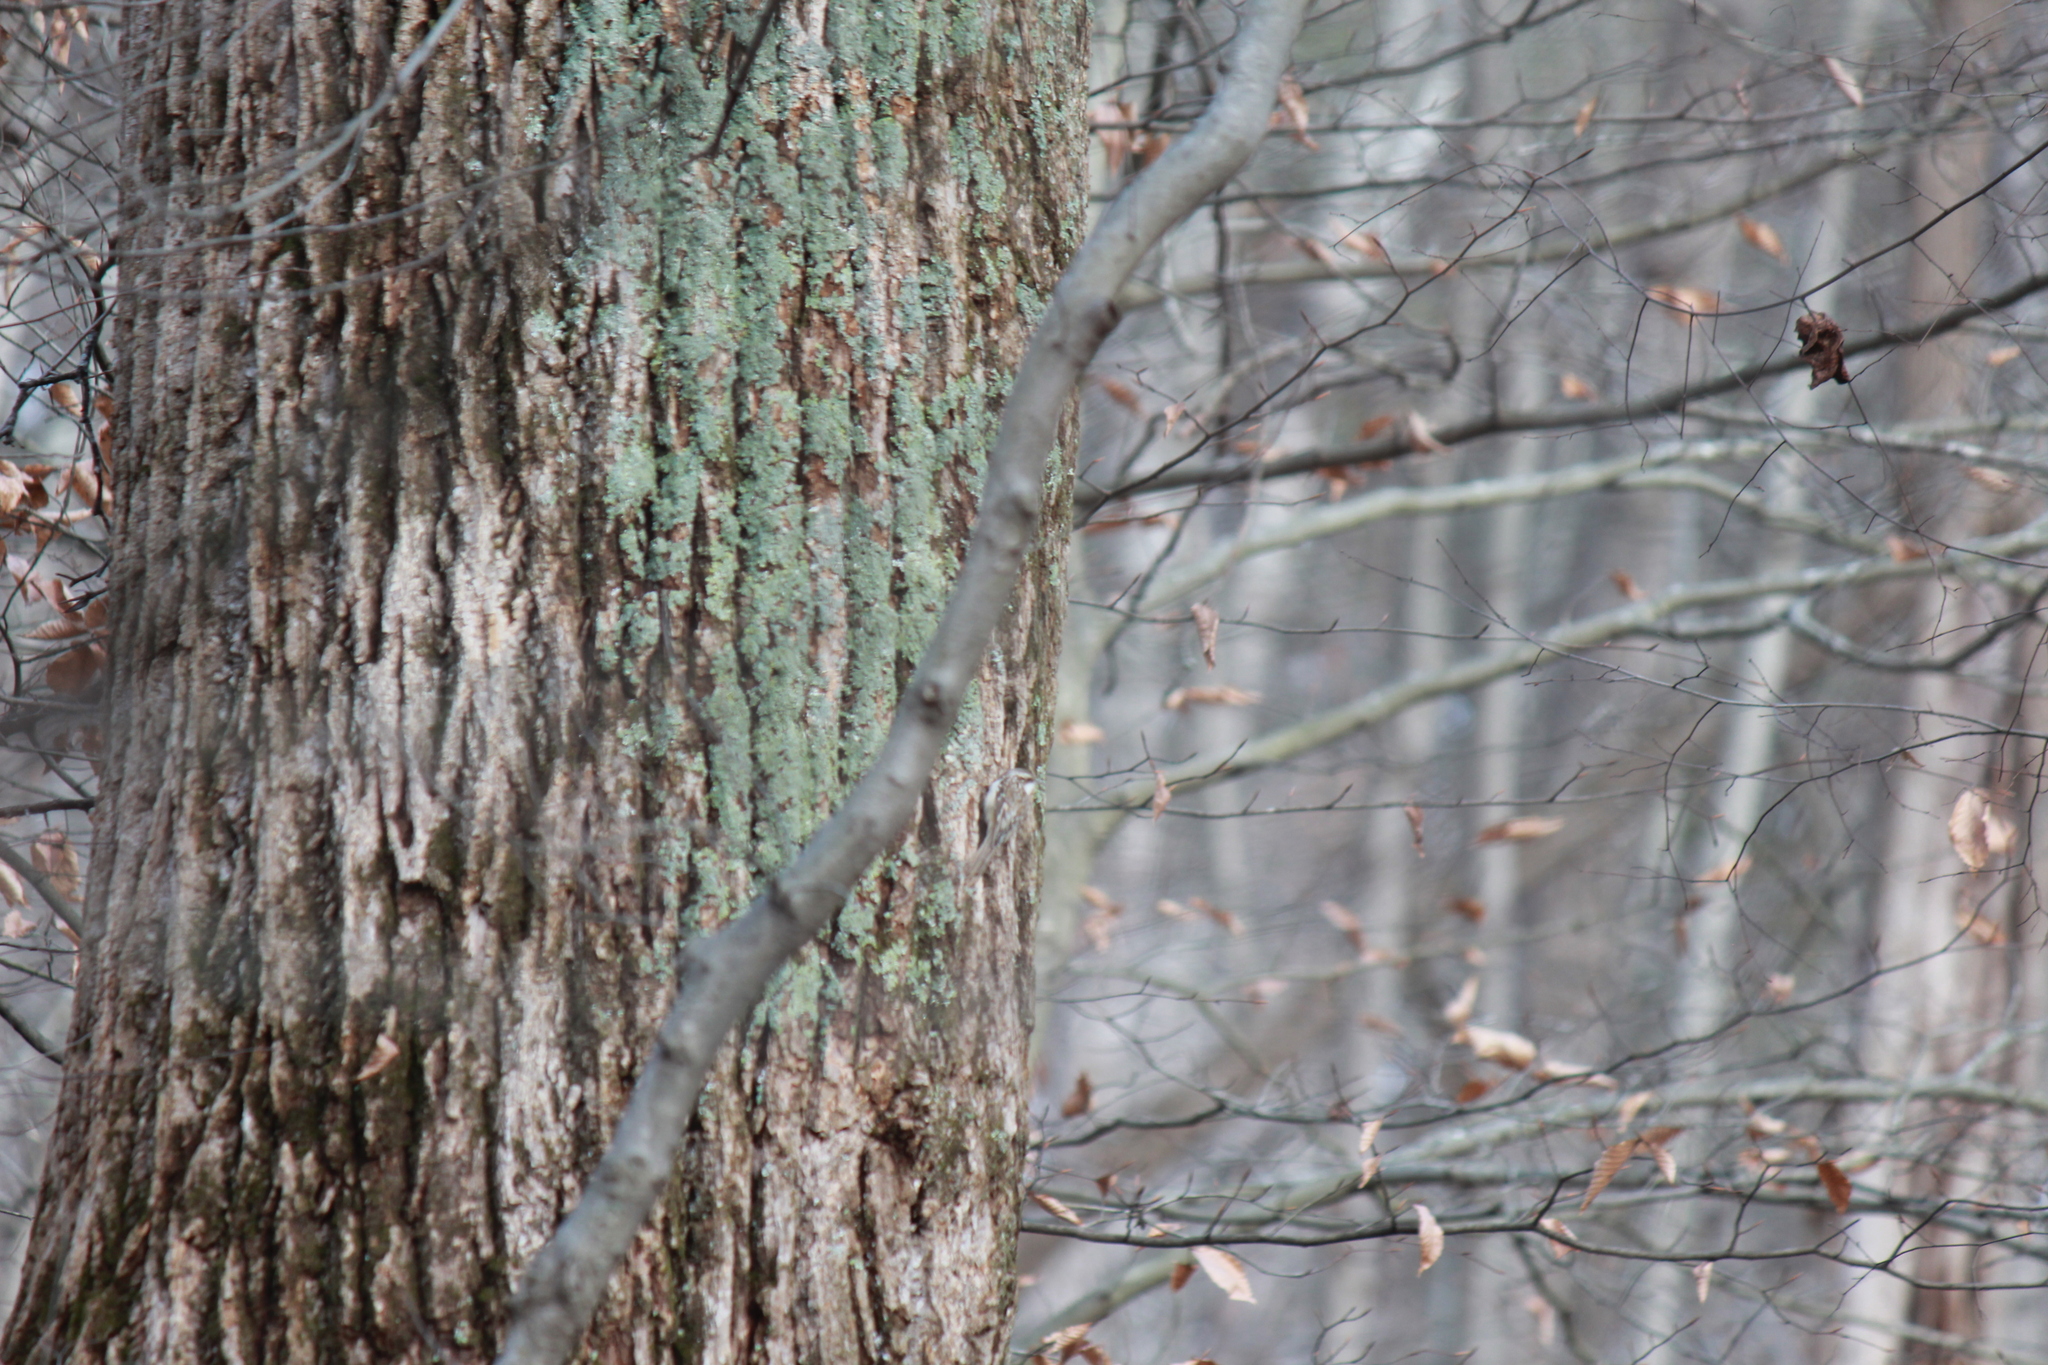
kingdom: Animalia
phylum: Chordata
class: Aves
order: Passeriformes
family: Certhiidae
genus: Certhia
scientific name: Certhia americana
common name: Brown creeper
